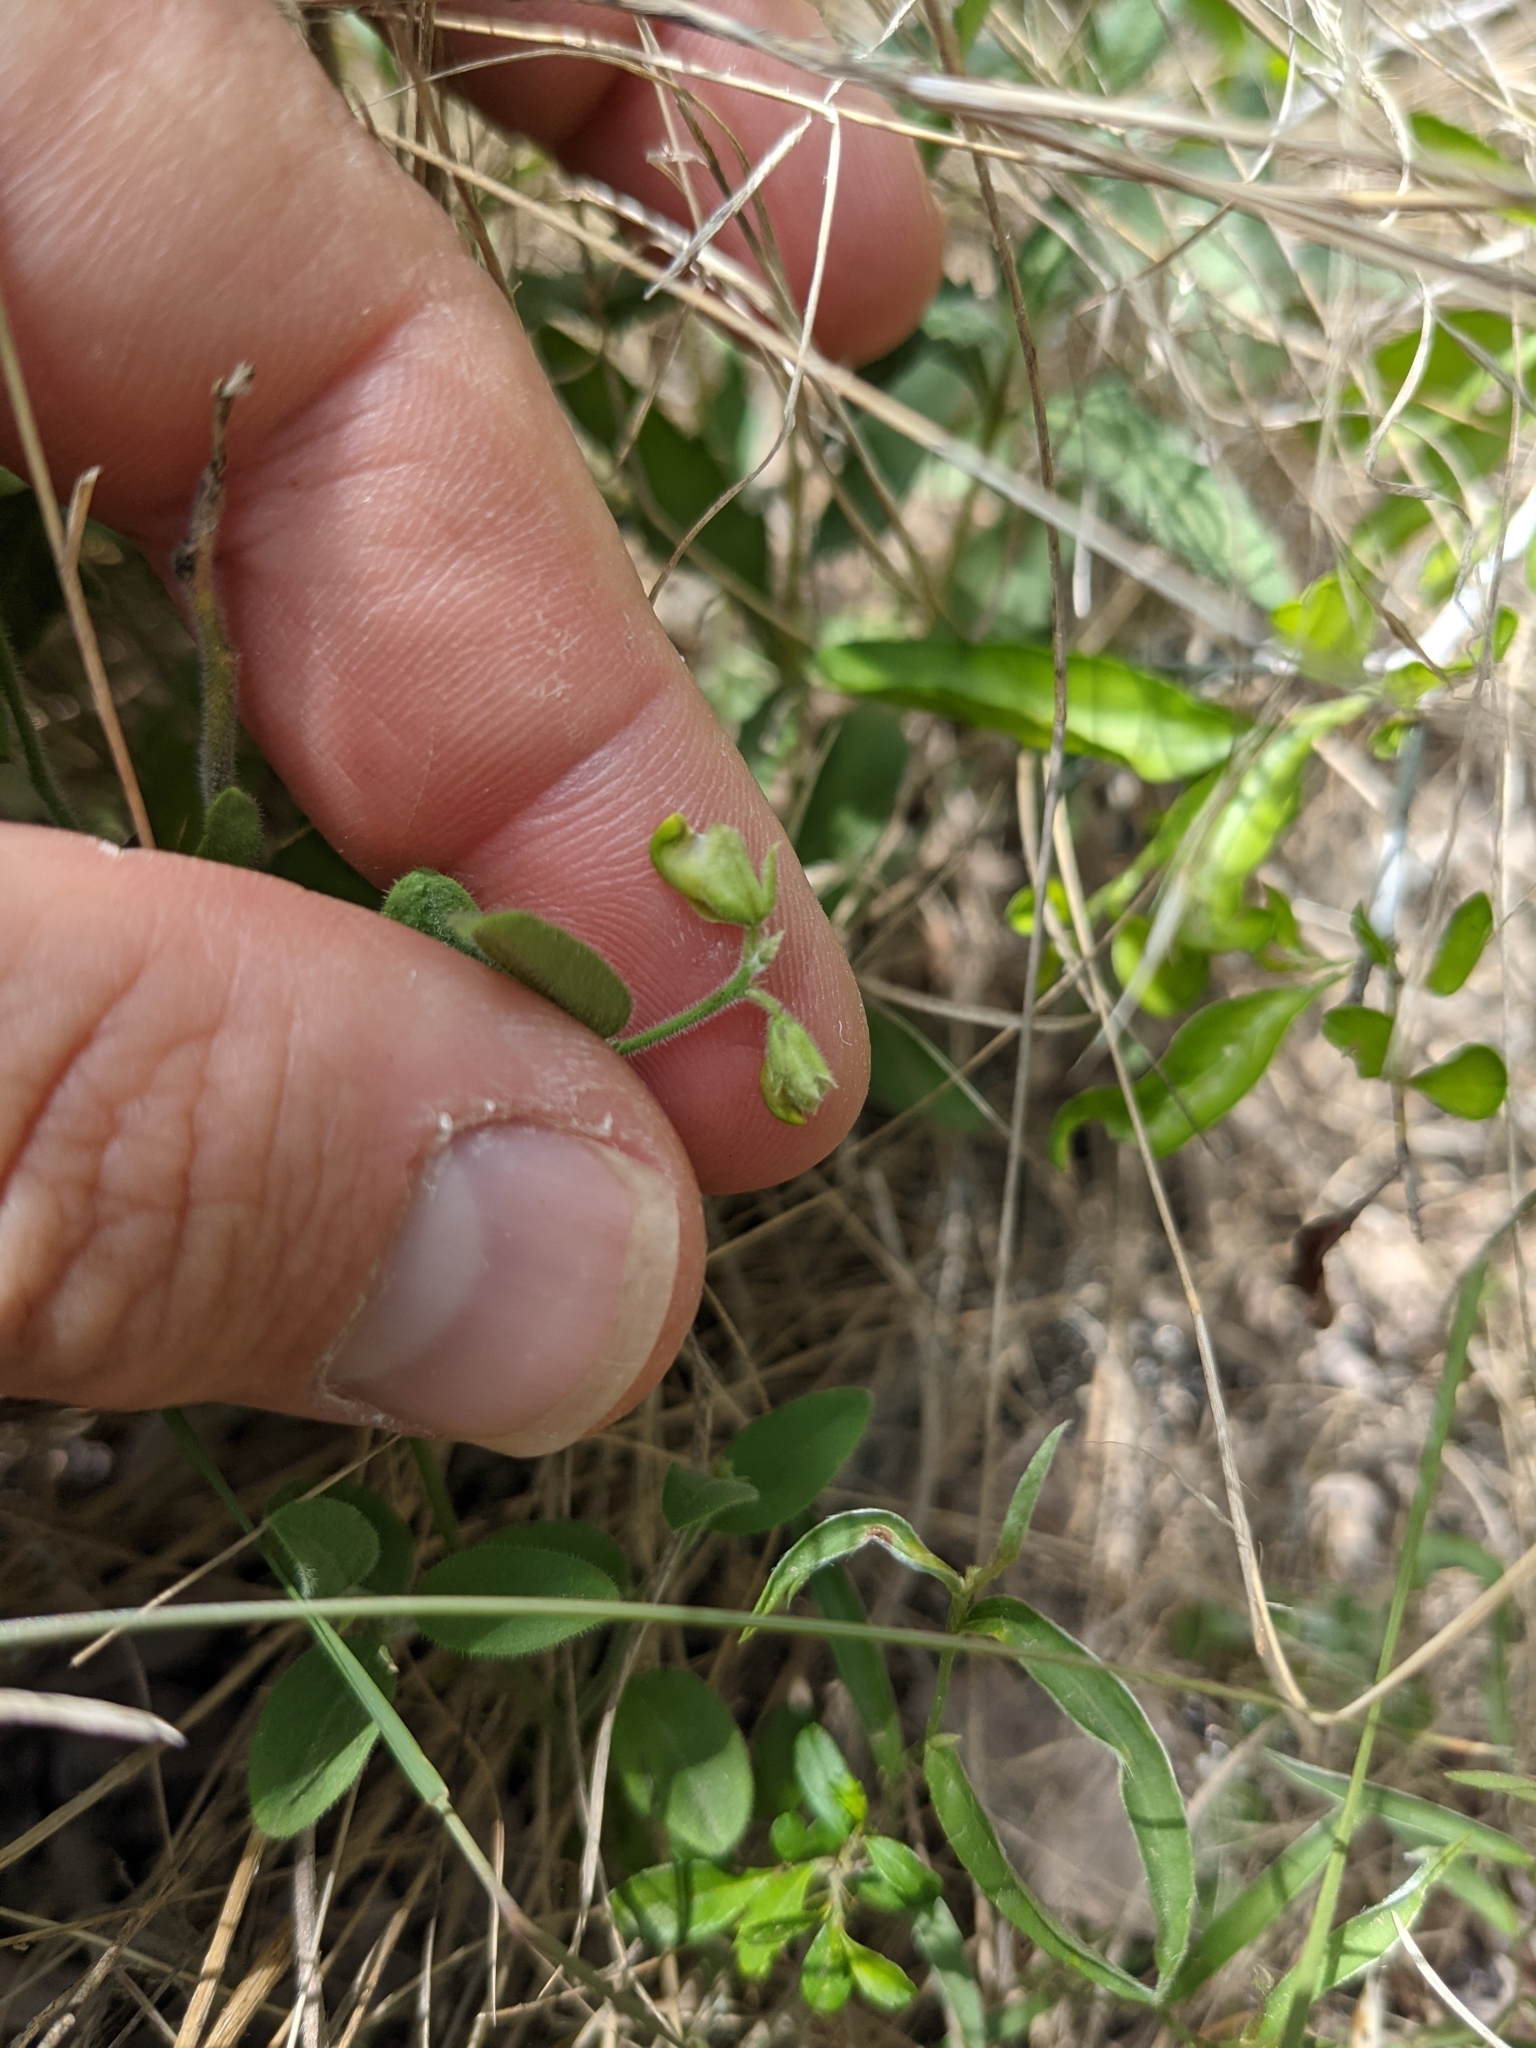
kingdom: Plantae
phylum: Tracheophyta
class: Magnoliopsida
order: Fabales
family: Polygalaceae
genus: Hebecarpa
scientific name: Hebecarpa ovatifolia
